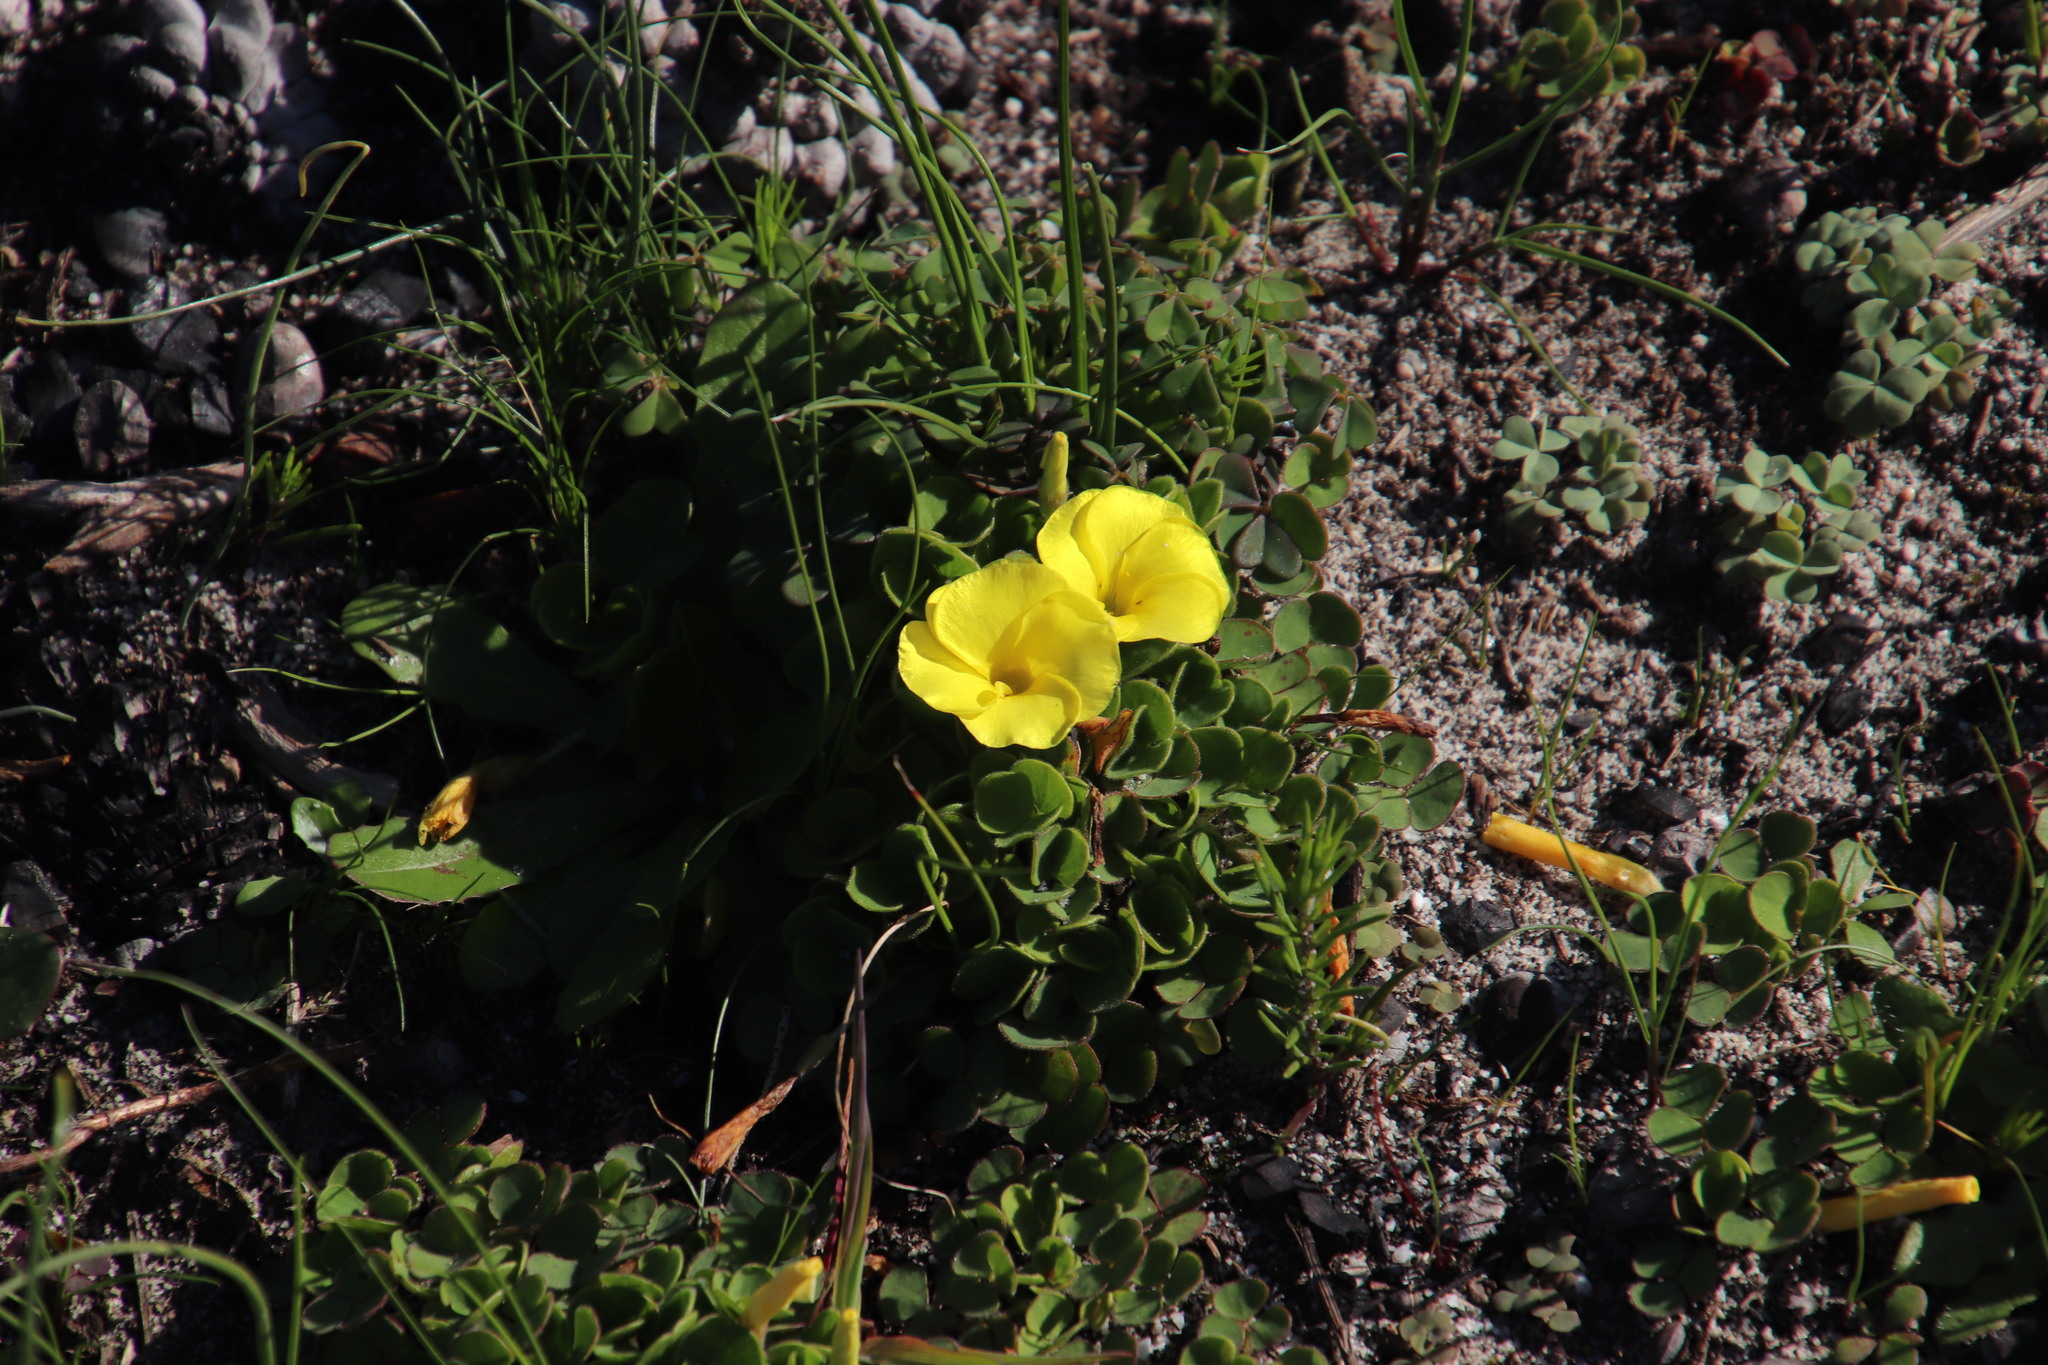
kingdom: Plantae
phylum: Tracheophyta
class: Magnoliopsida
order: Oxalidales
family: Oxalidaceae
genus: Oxalis
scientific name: Oxalis luteola
